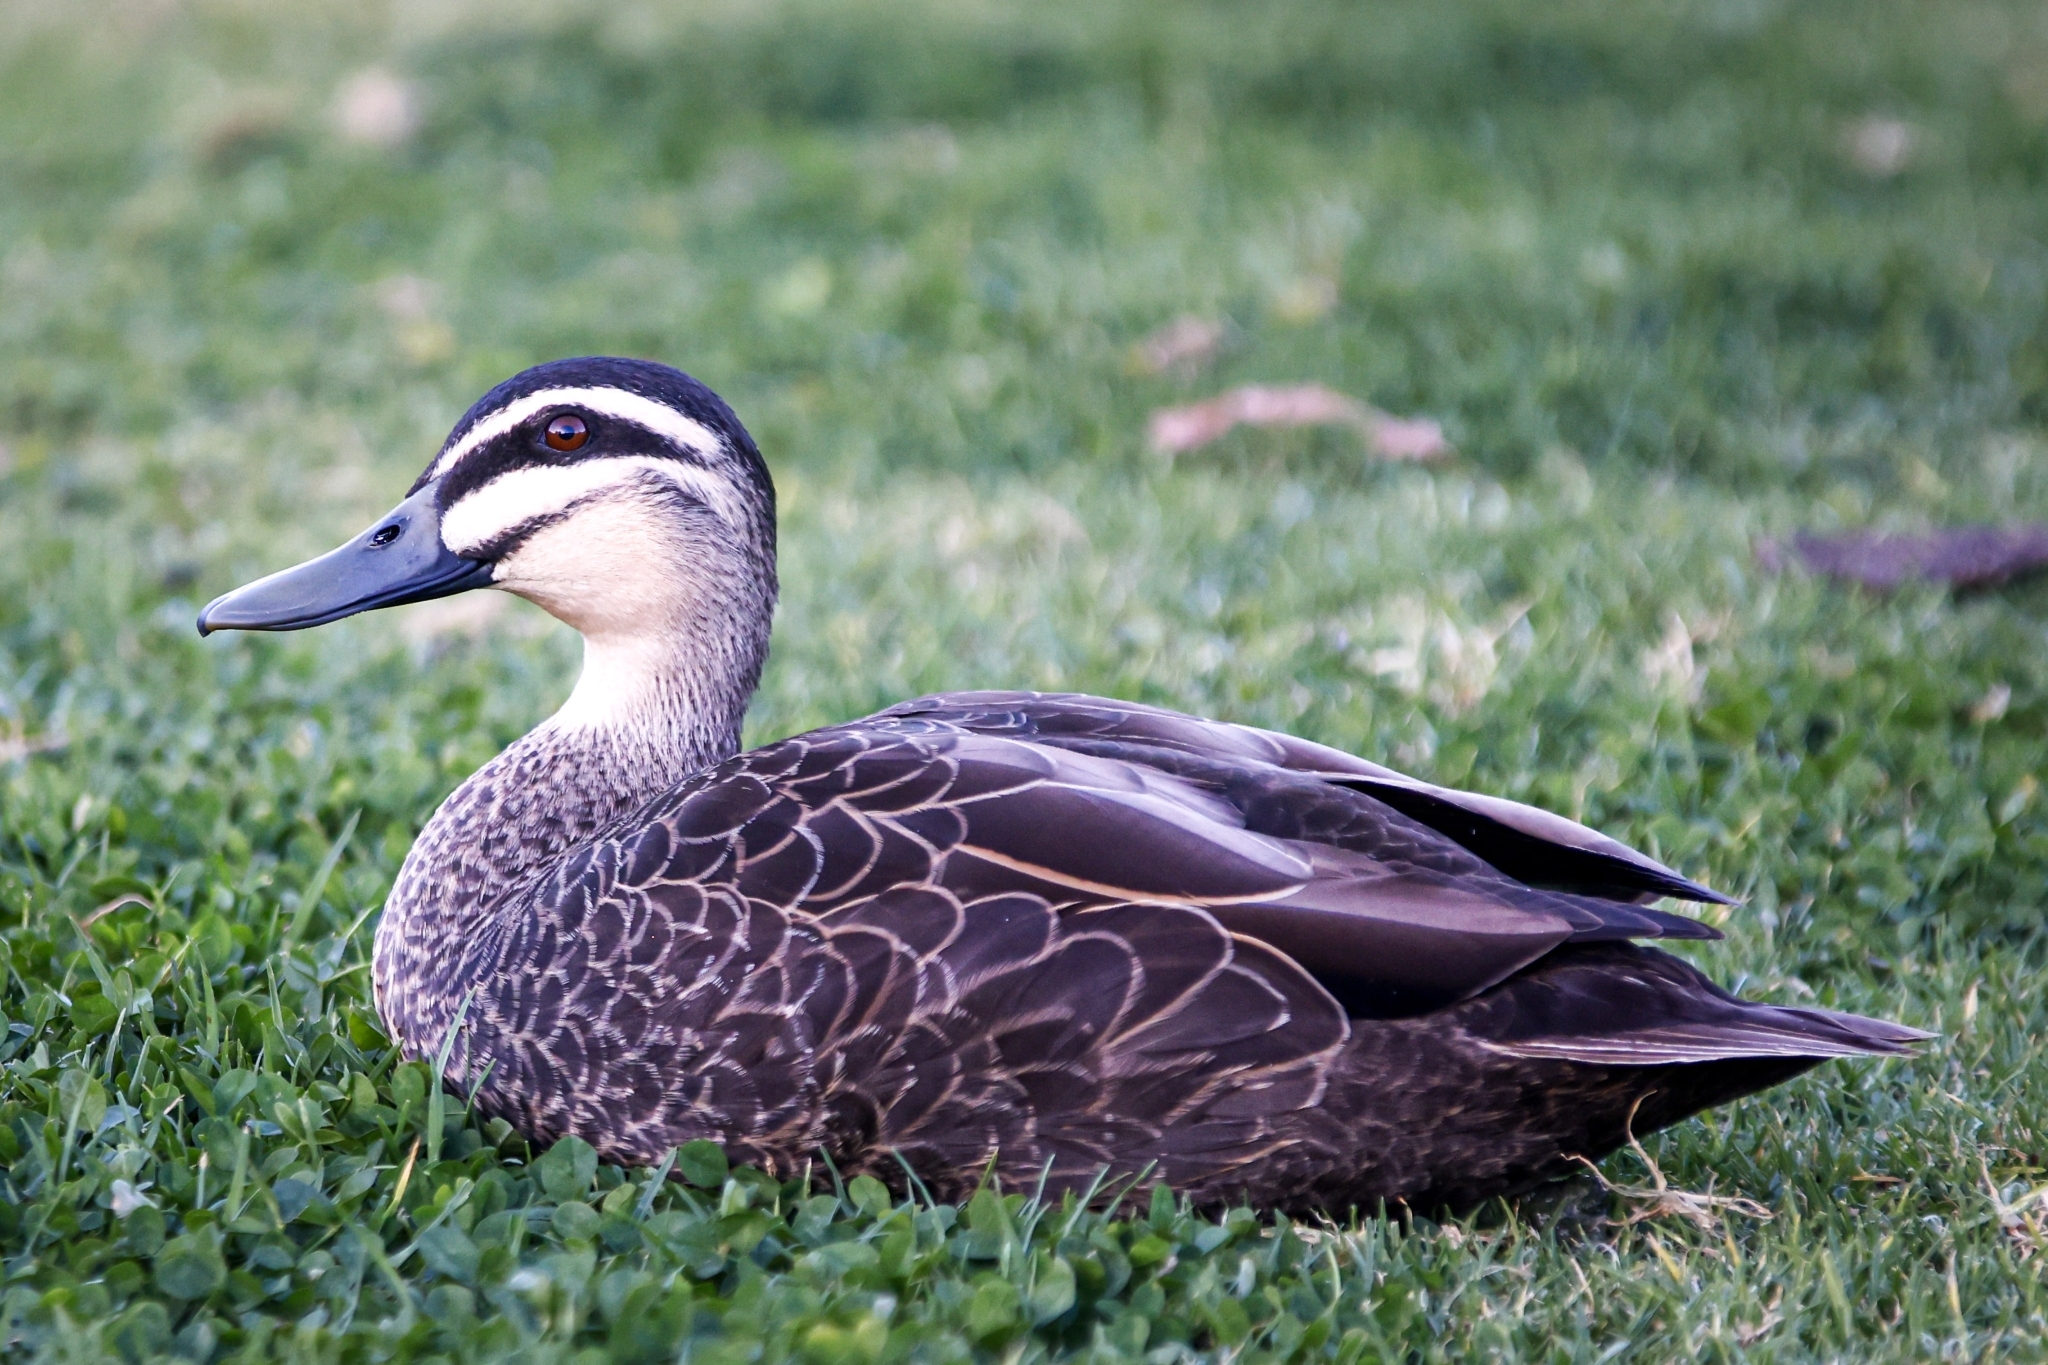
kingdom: Animalia
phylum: Chordata
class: Aves
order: Anseriformes
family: Anatidae
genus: Anas
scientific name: Anas superciliosa
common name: Pacific black duck
